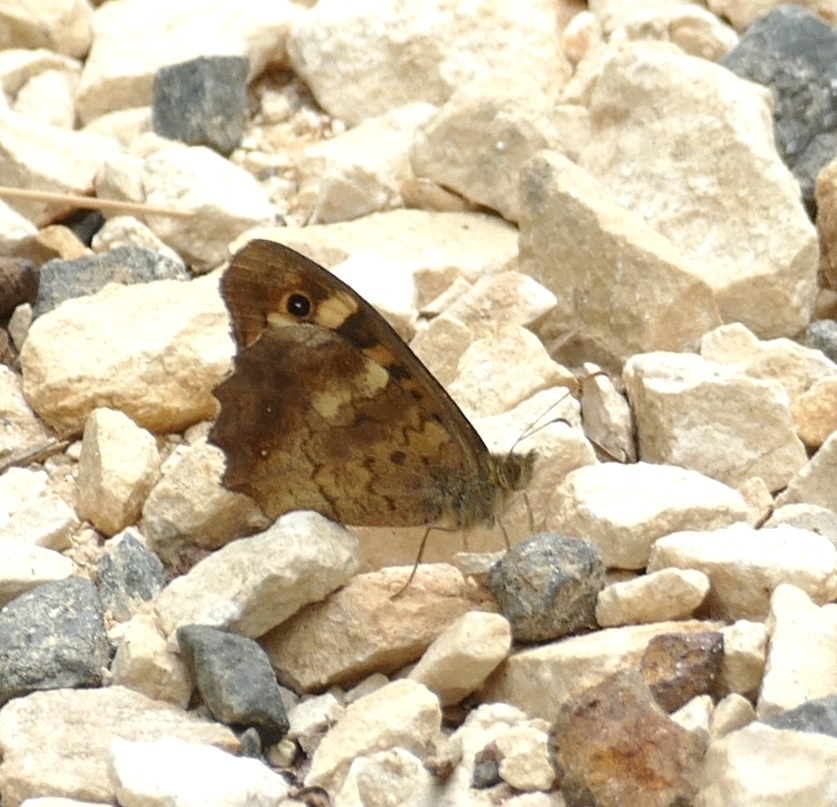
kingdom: Animalia
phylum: Arthropoda
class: Insecta
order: Lepidoptera
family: Nymphalidae
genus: Pararge
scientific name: Pararge aegeria
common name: Speckled wood
